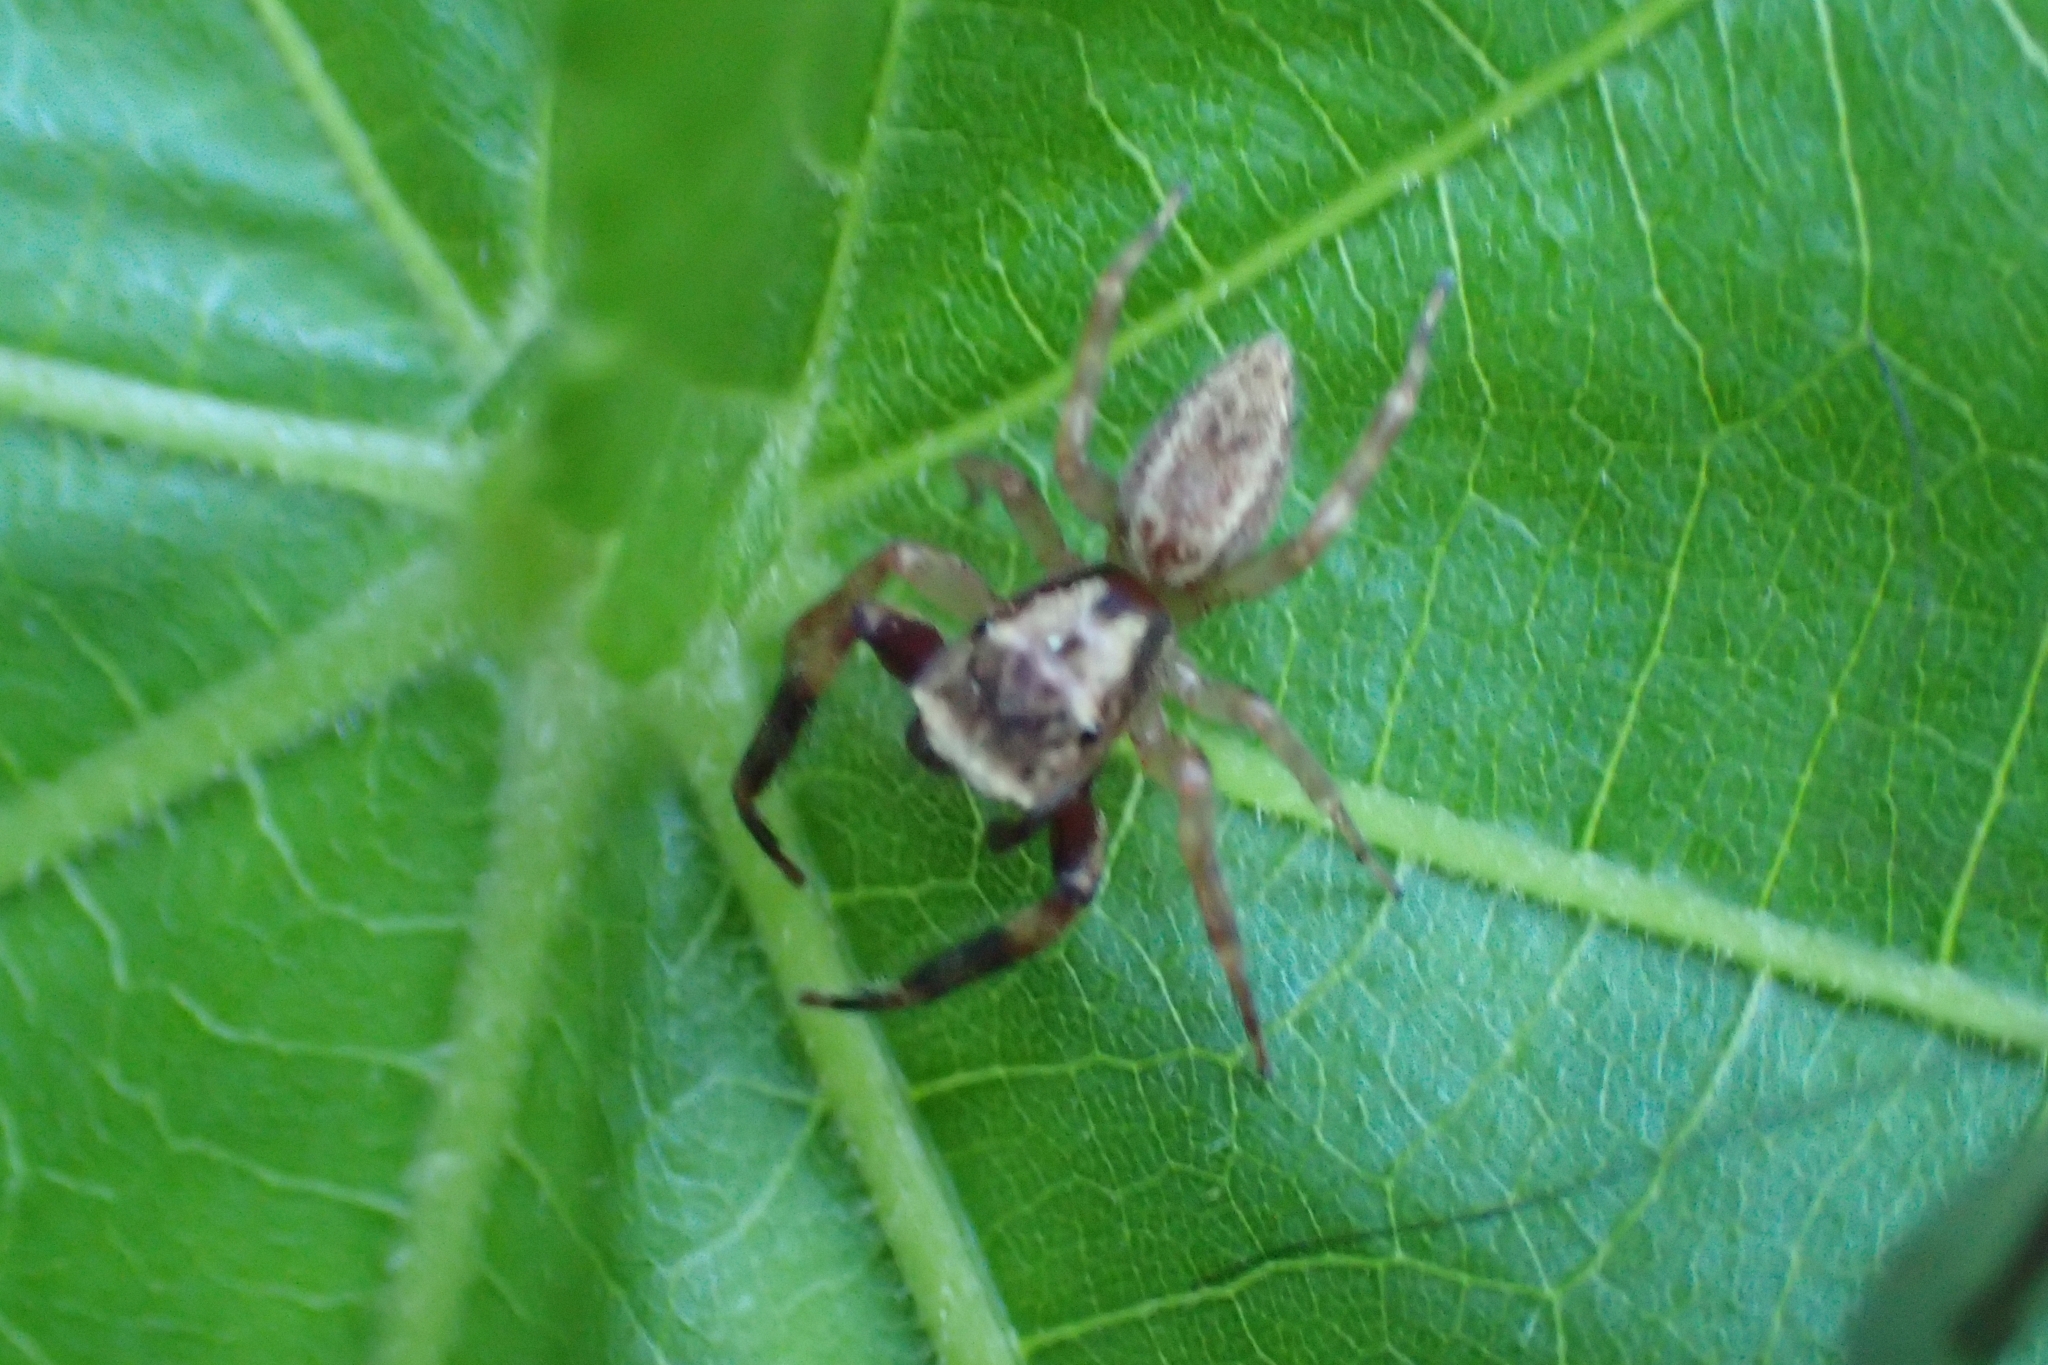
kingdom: Animalia
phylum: Arthropoda
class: Arachnida
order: Araneae
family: Salticidae
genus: Trite
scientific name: Trite auricoma
